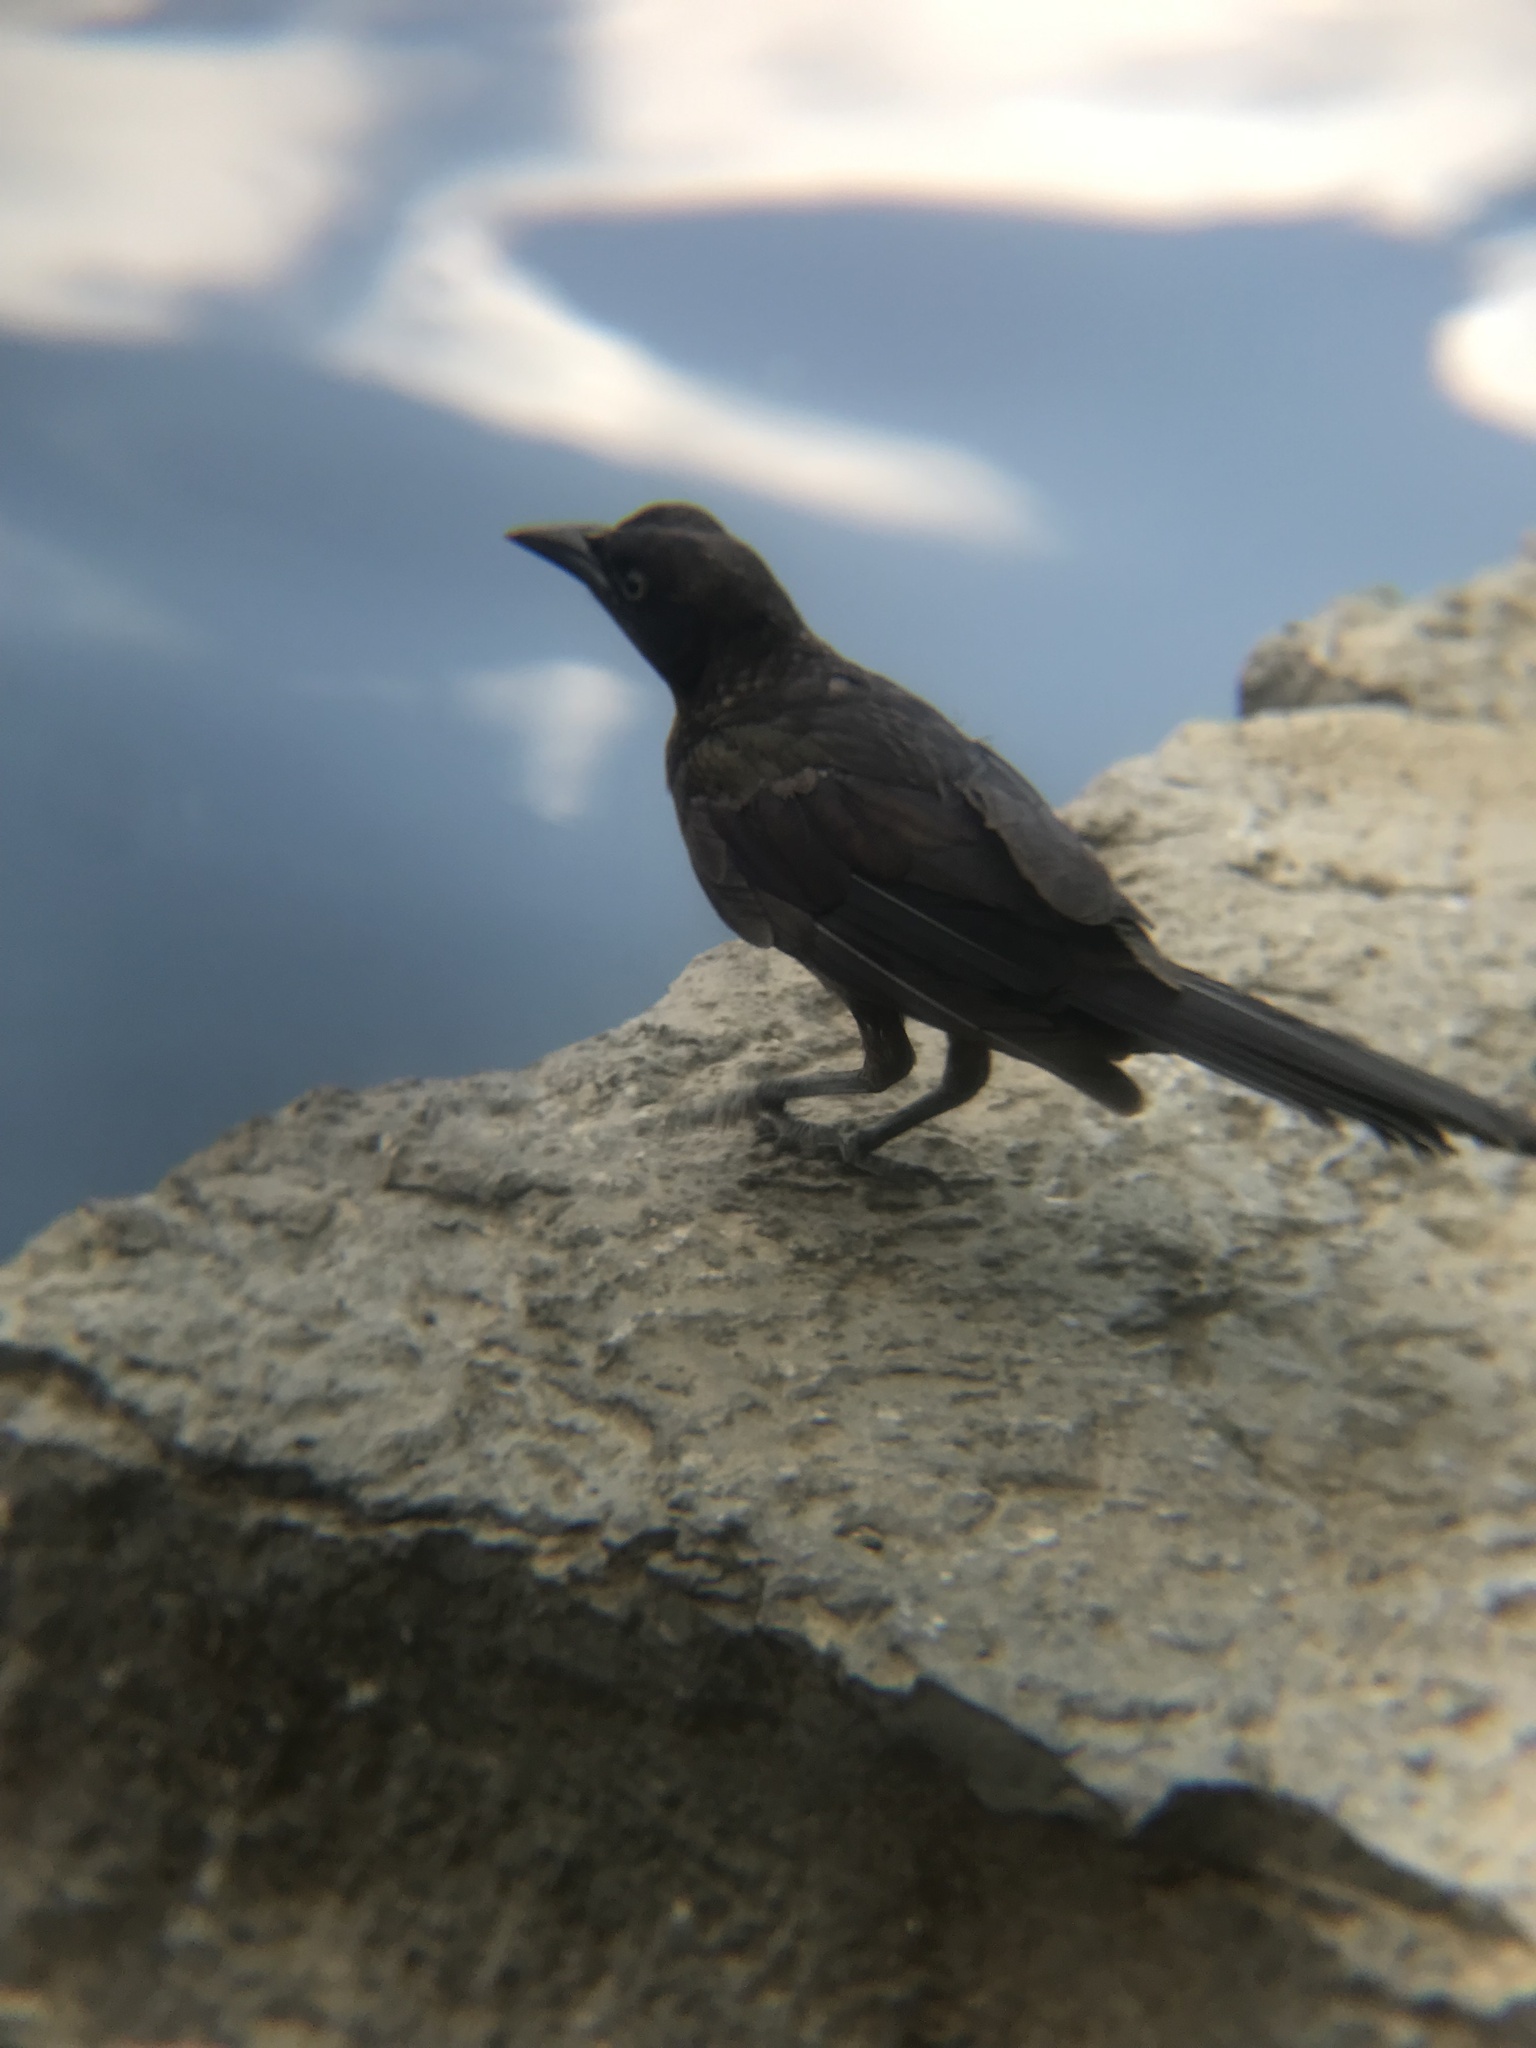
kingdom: Animalia
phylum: Chordata
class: Aves
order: Passeriformes
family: Icteridae
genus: Quiscalus
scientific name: Quiscalus quiscula
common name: Common grackle
